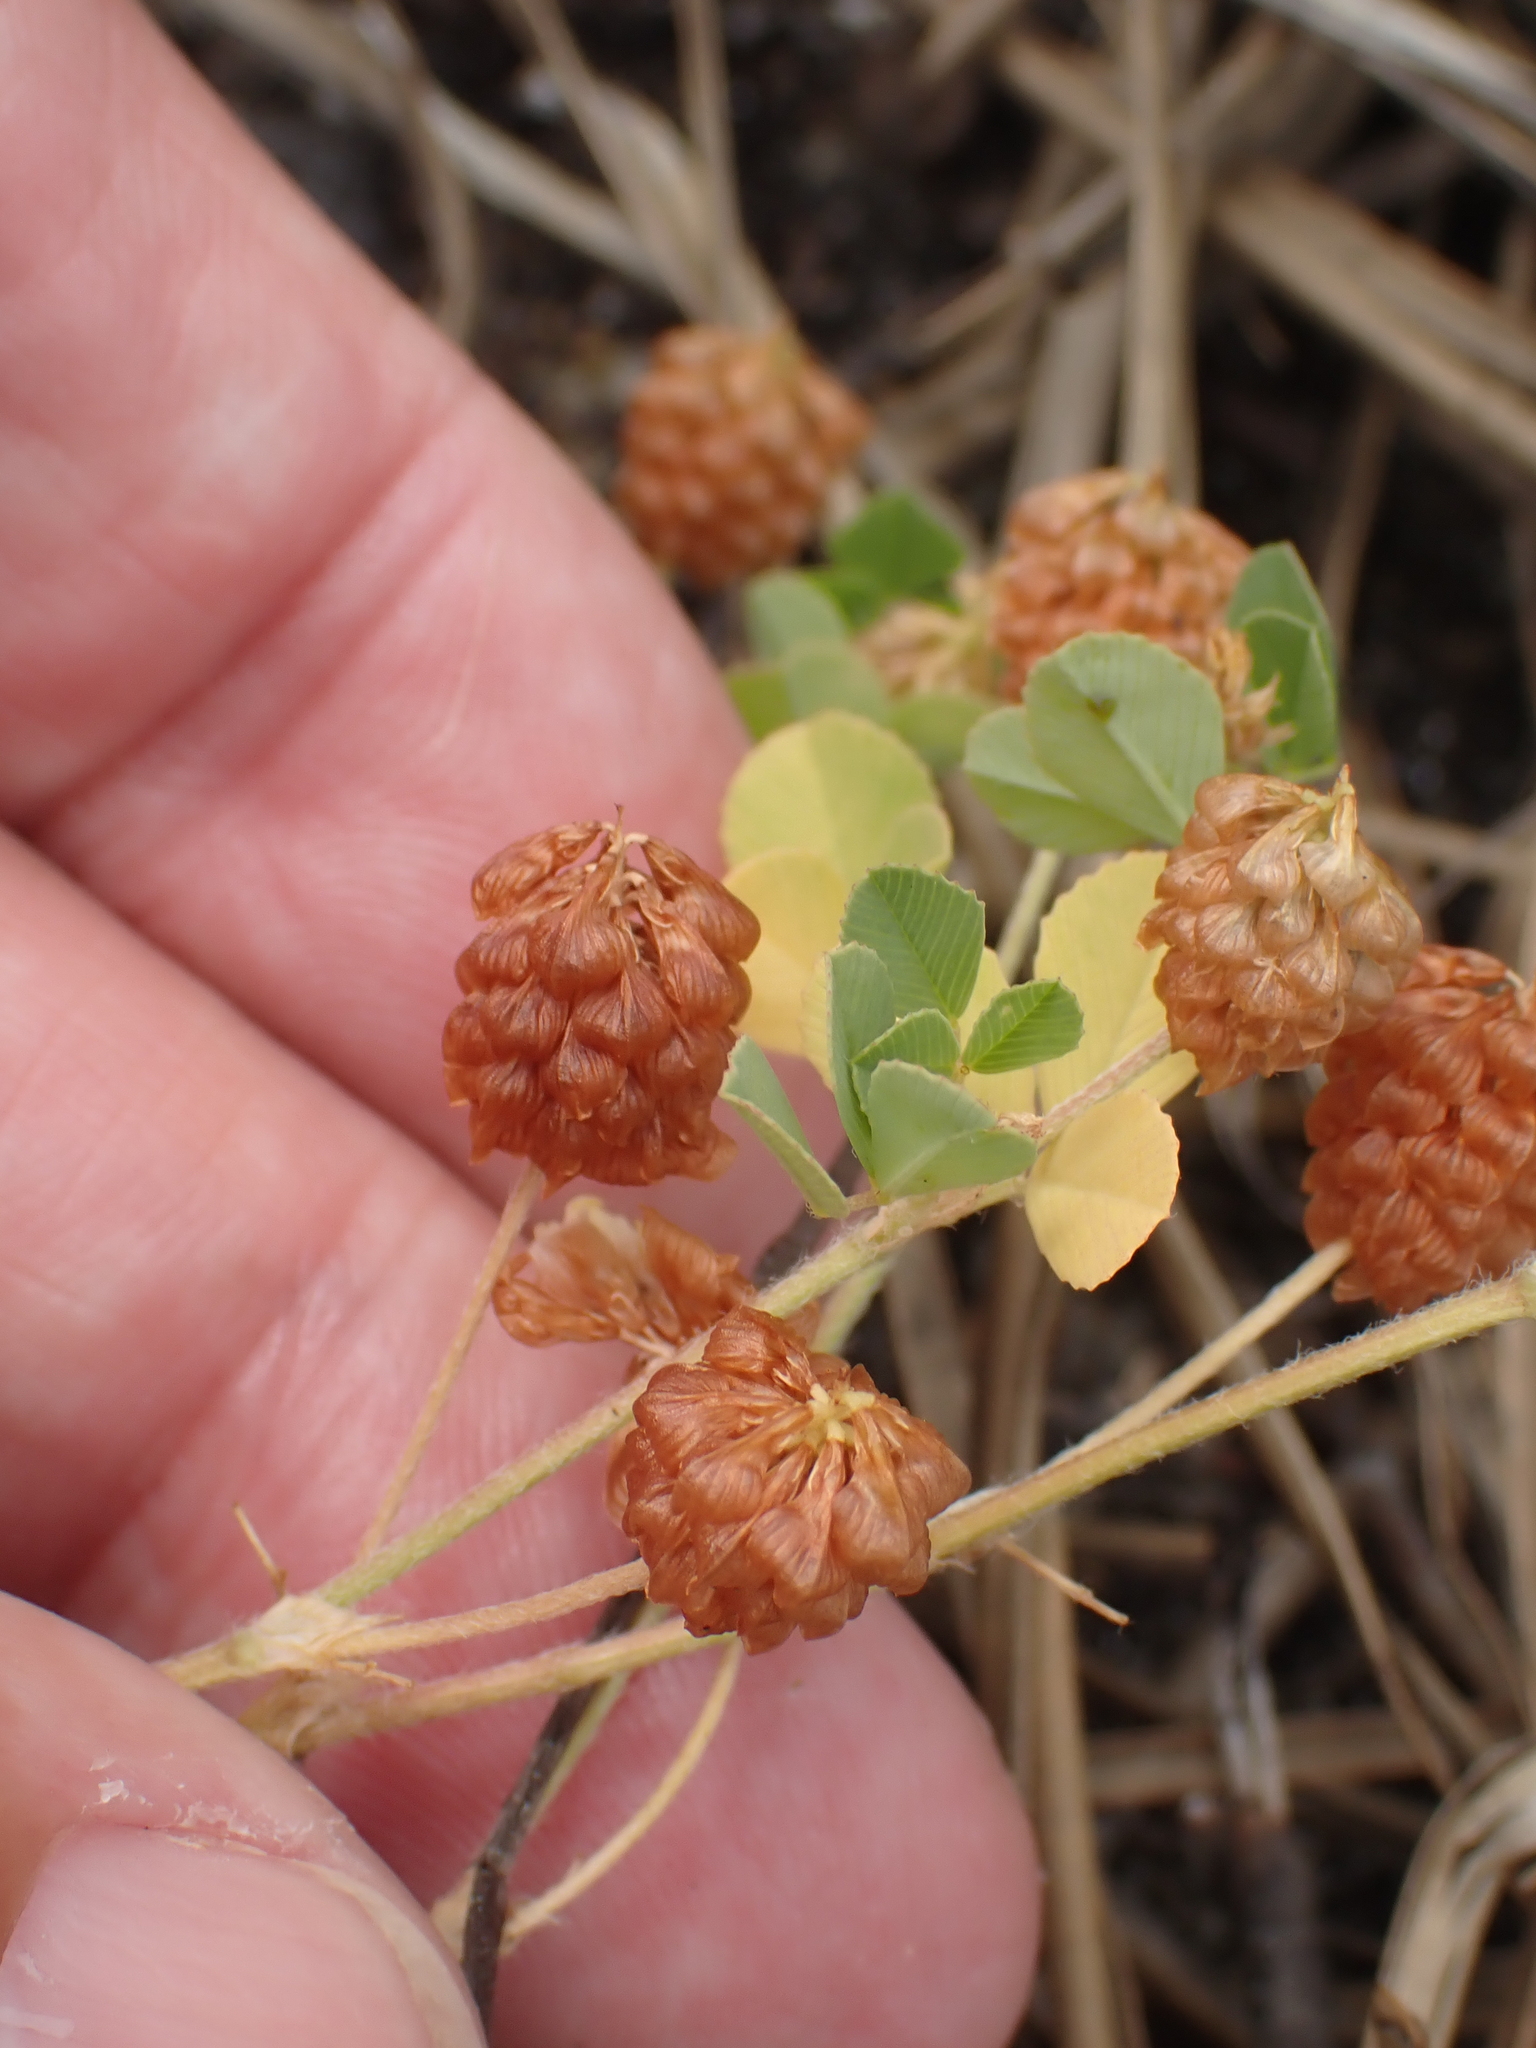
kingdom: Plantae
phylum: Tracheophyta
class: Magnoliopsida
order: Fabales
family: Fabaceae
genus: Trifolium
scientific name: Trifolium campestre
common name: Field clover
